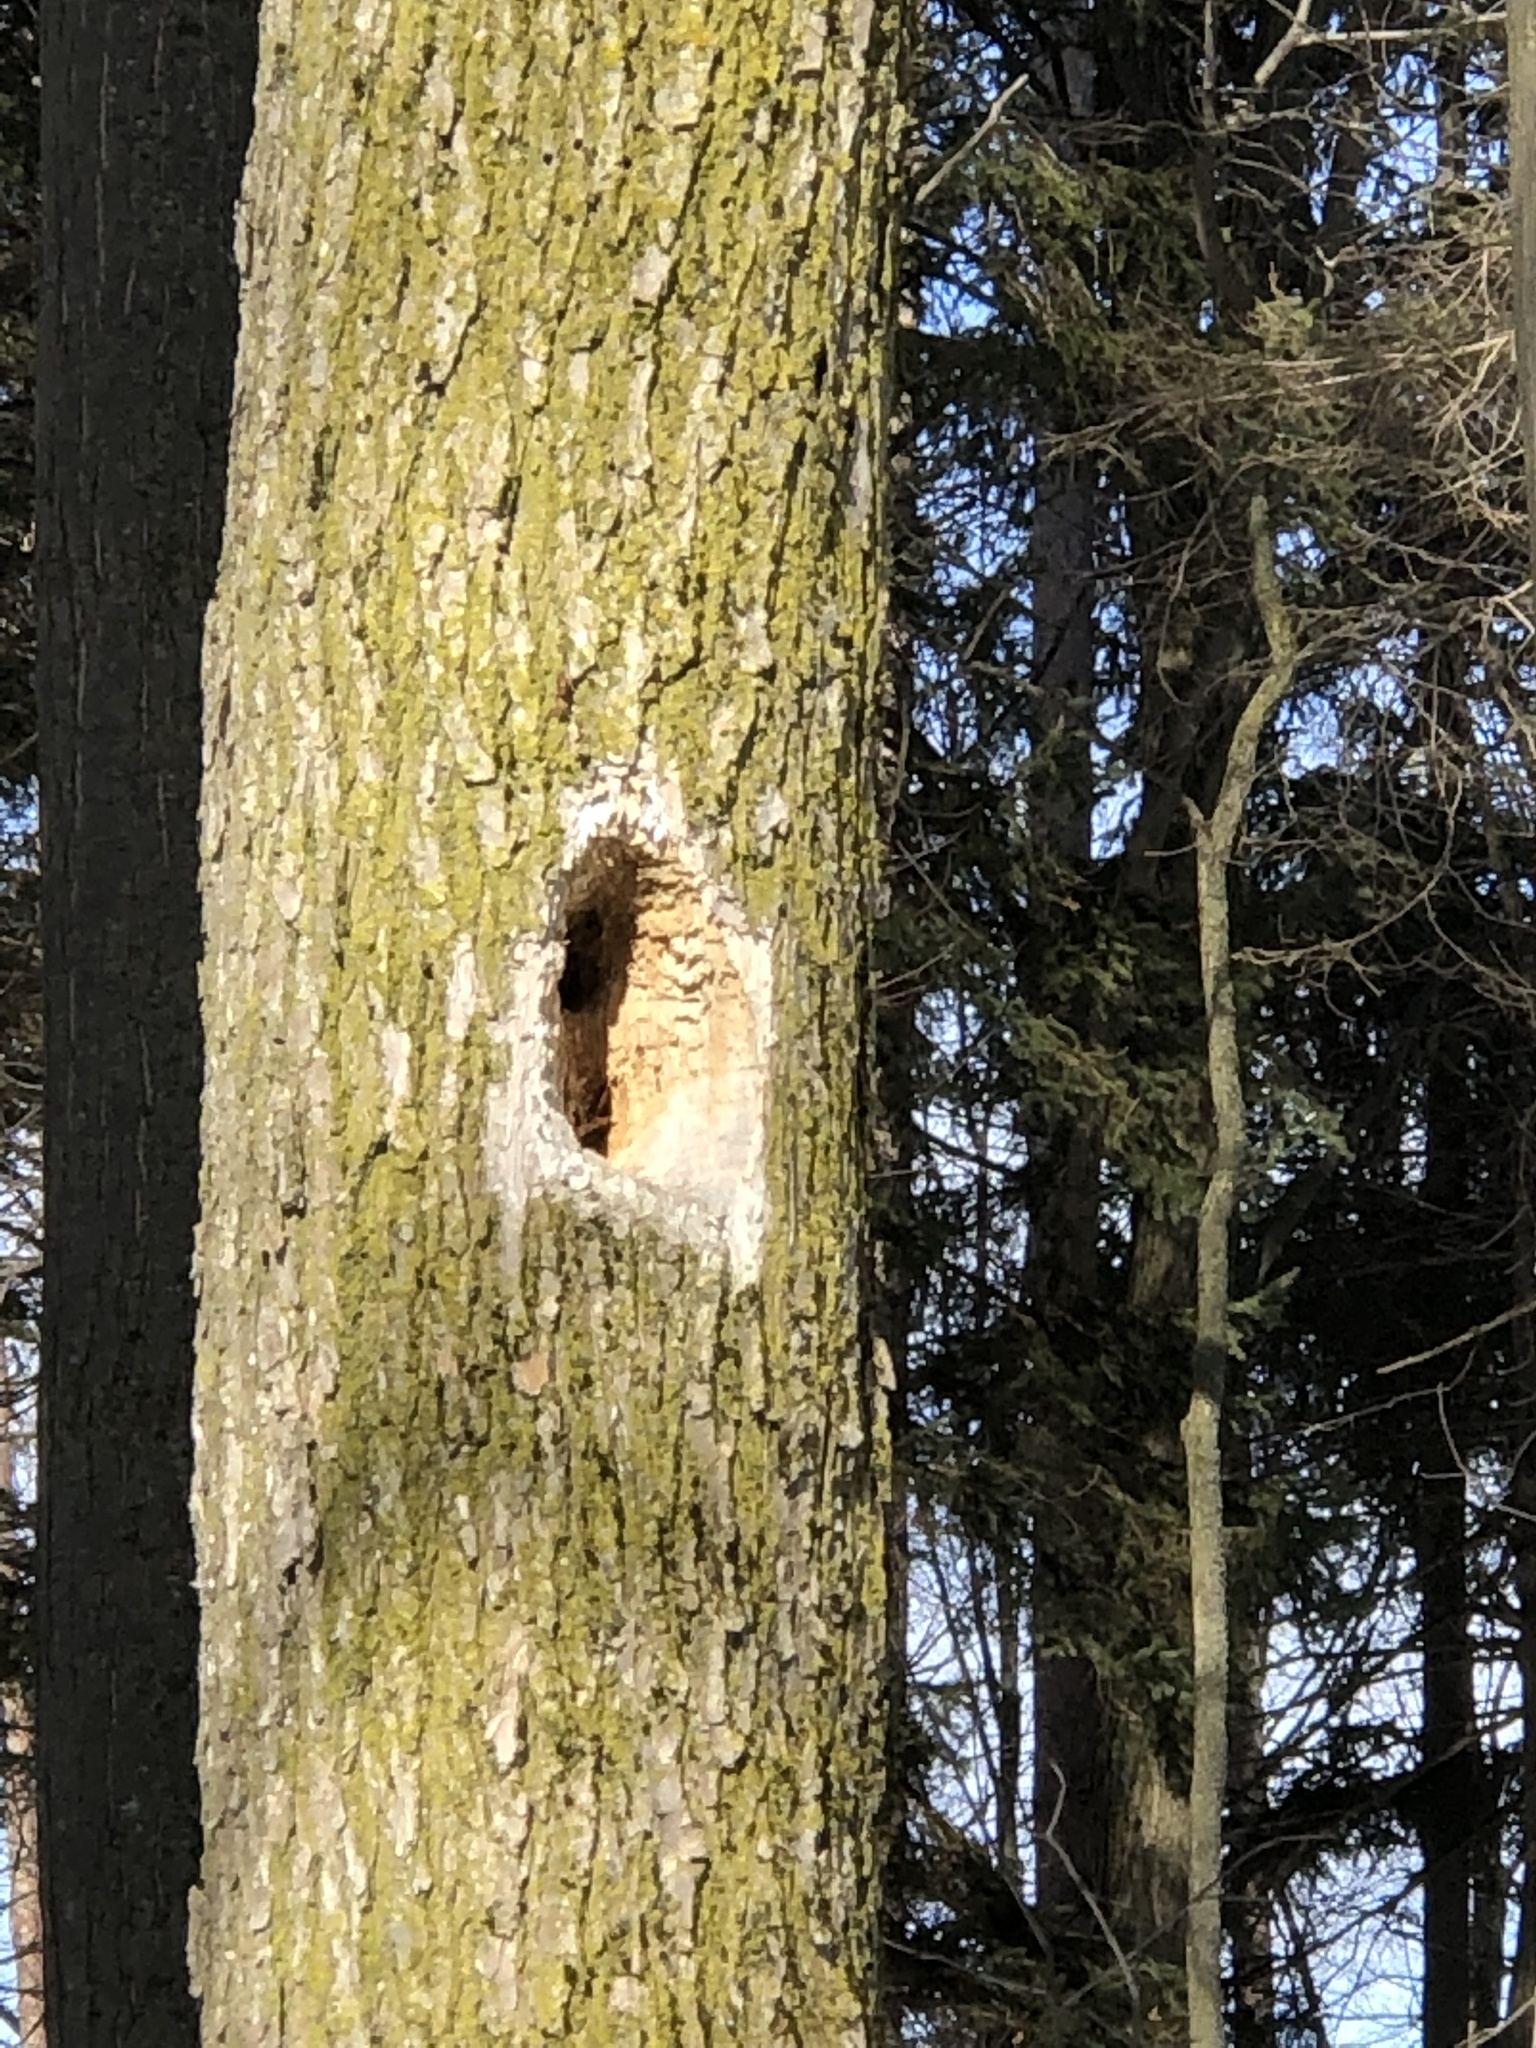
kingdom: Animalia
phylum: Chordata
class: Aves
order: Piciformes
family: Picidae
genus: Dryocopus
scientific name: Dryocopus pileatus
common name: Pileated woodpecker
